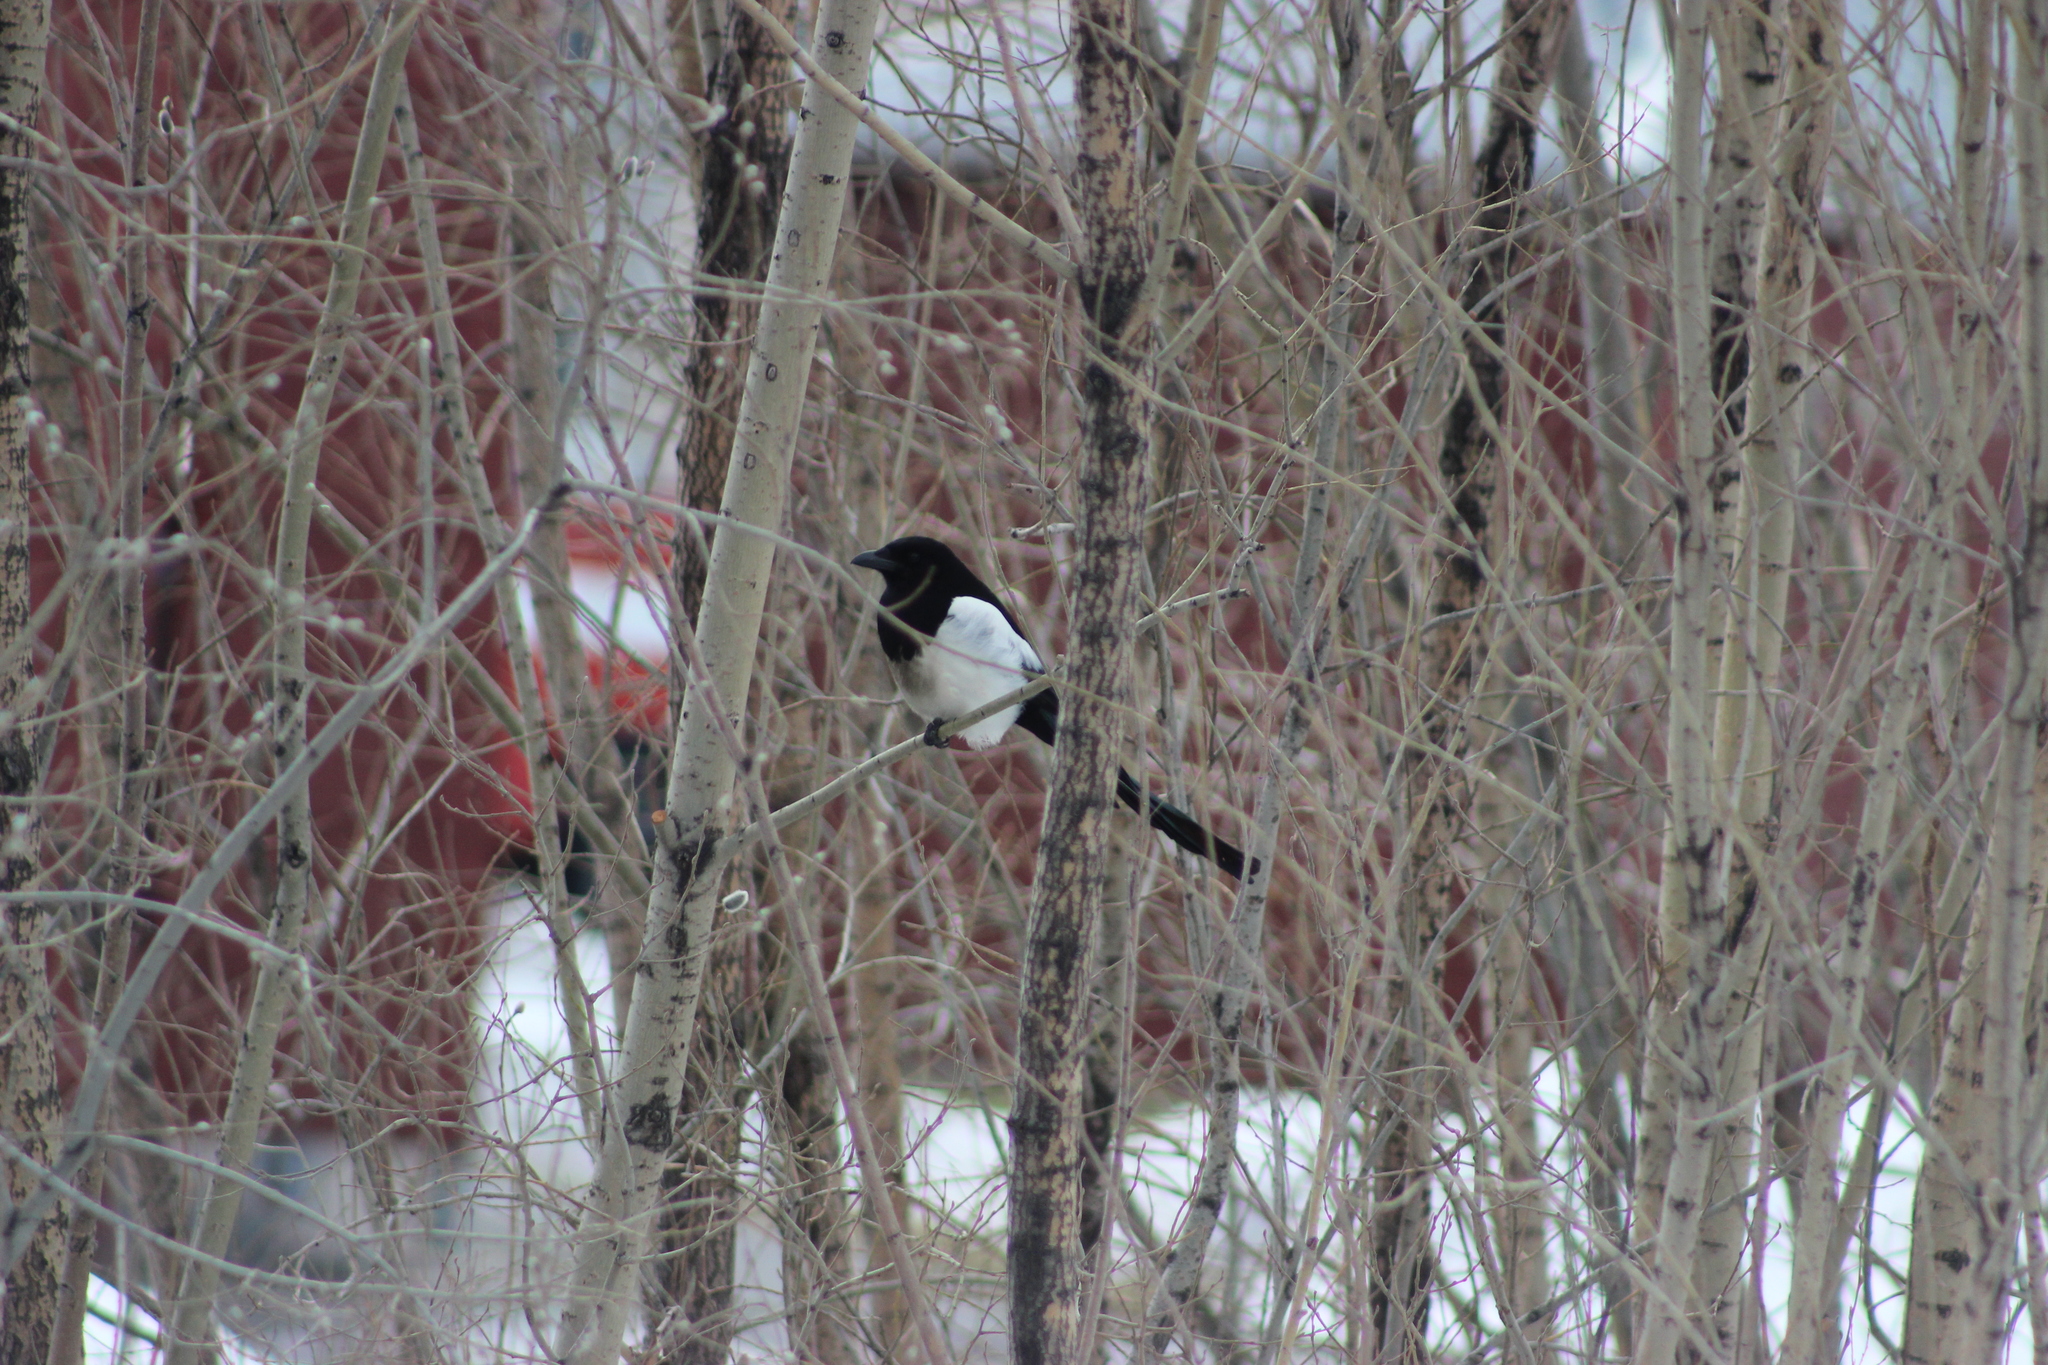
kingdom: Animalia
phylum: Chordata
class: Aves
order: Passeriformes
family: Corvidae
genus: Pica
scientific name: Pica pica
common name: Eurasian magpie
